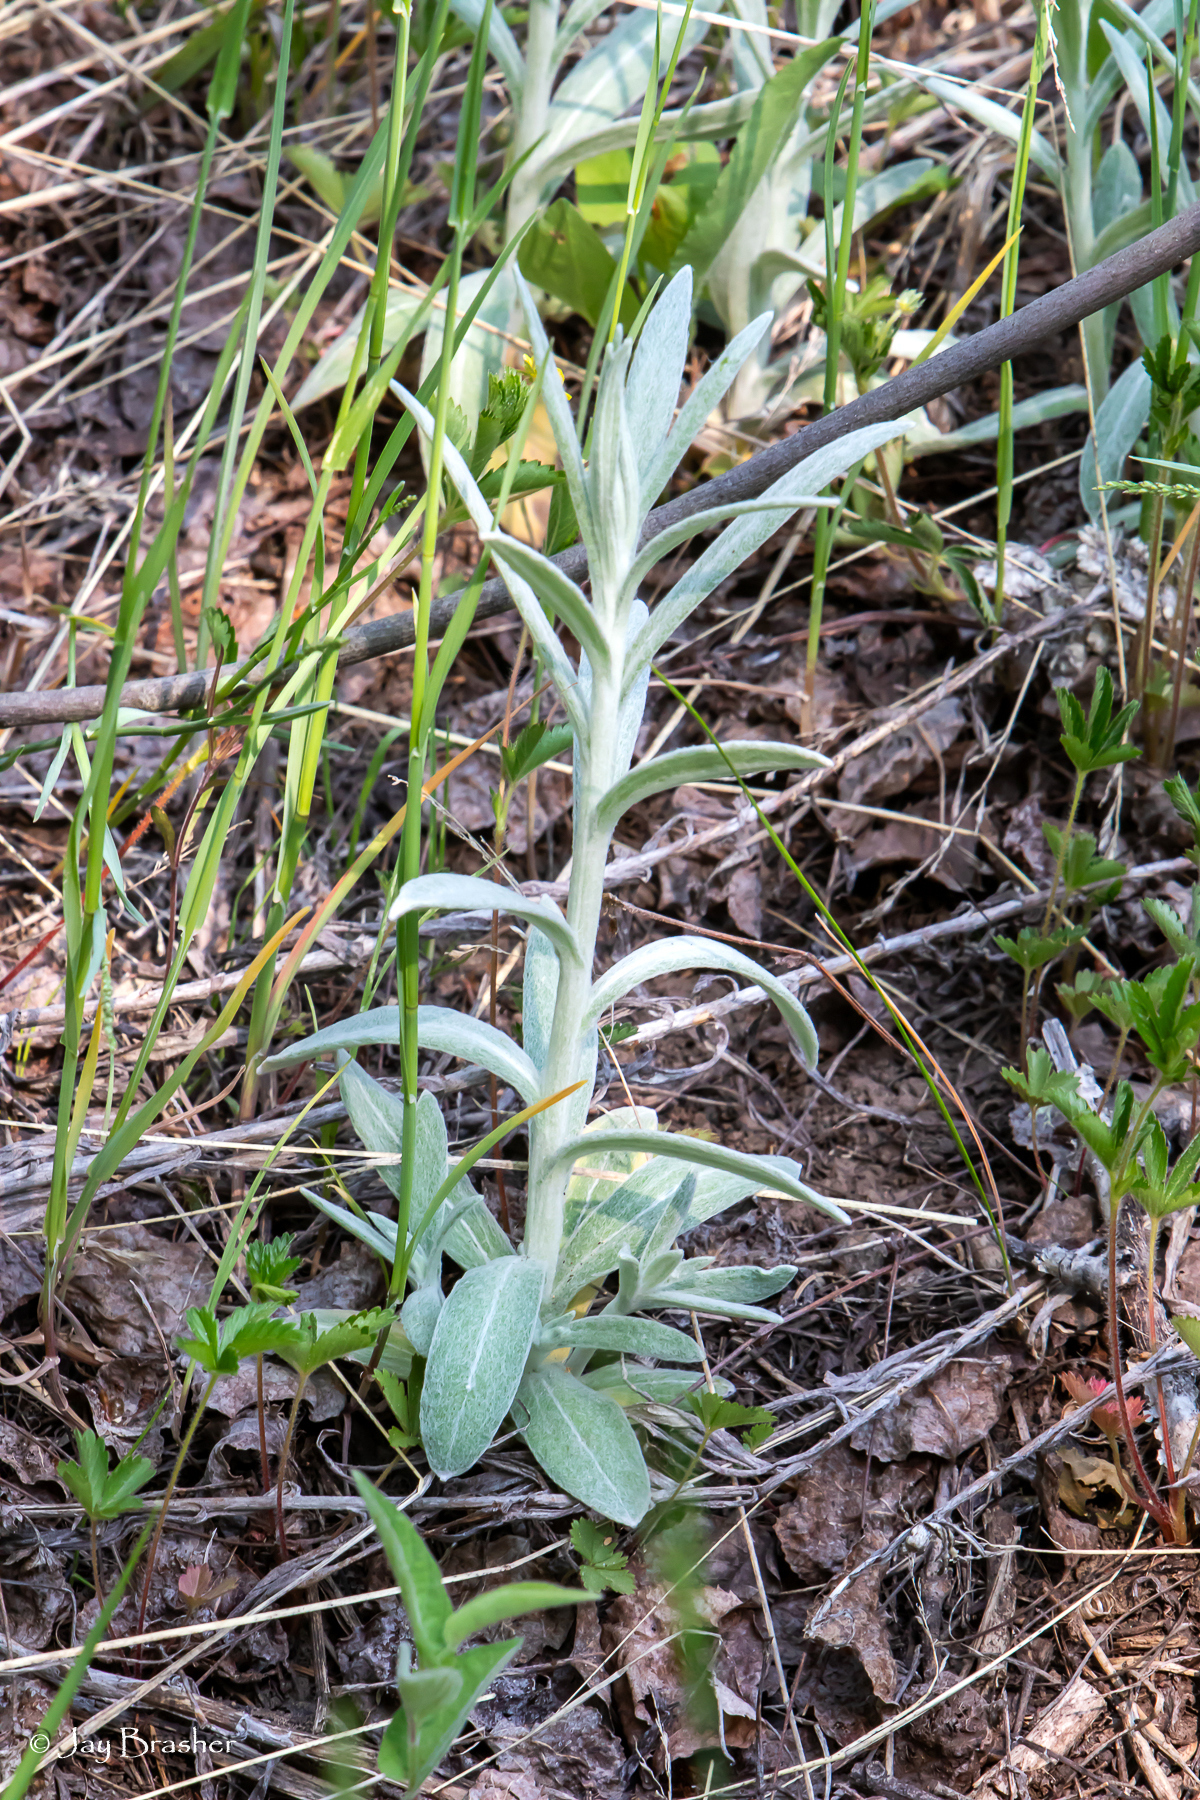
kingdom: Plantae
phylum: Tracheophyta
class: Magnoliopsida
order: Asterales
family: Asteraceae
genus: Anaphalis
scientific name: Anaphalis margaritacea
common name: Pearly everlasting
